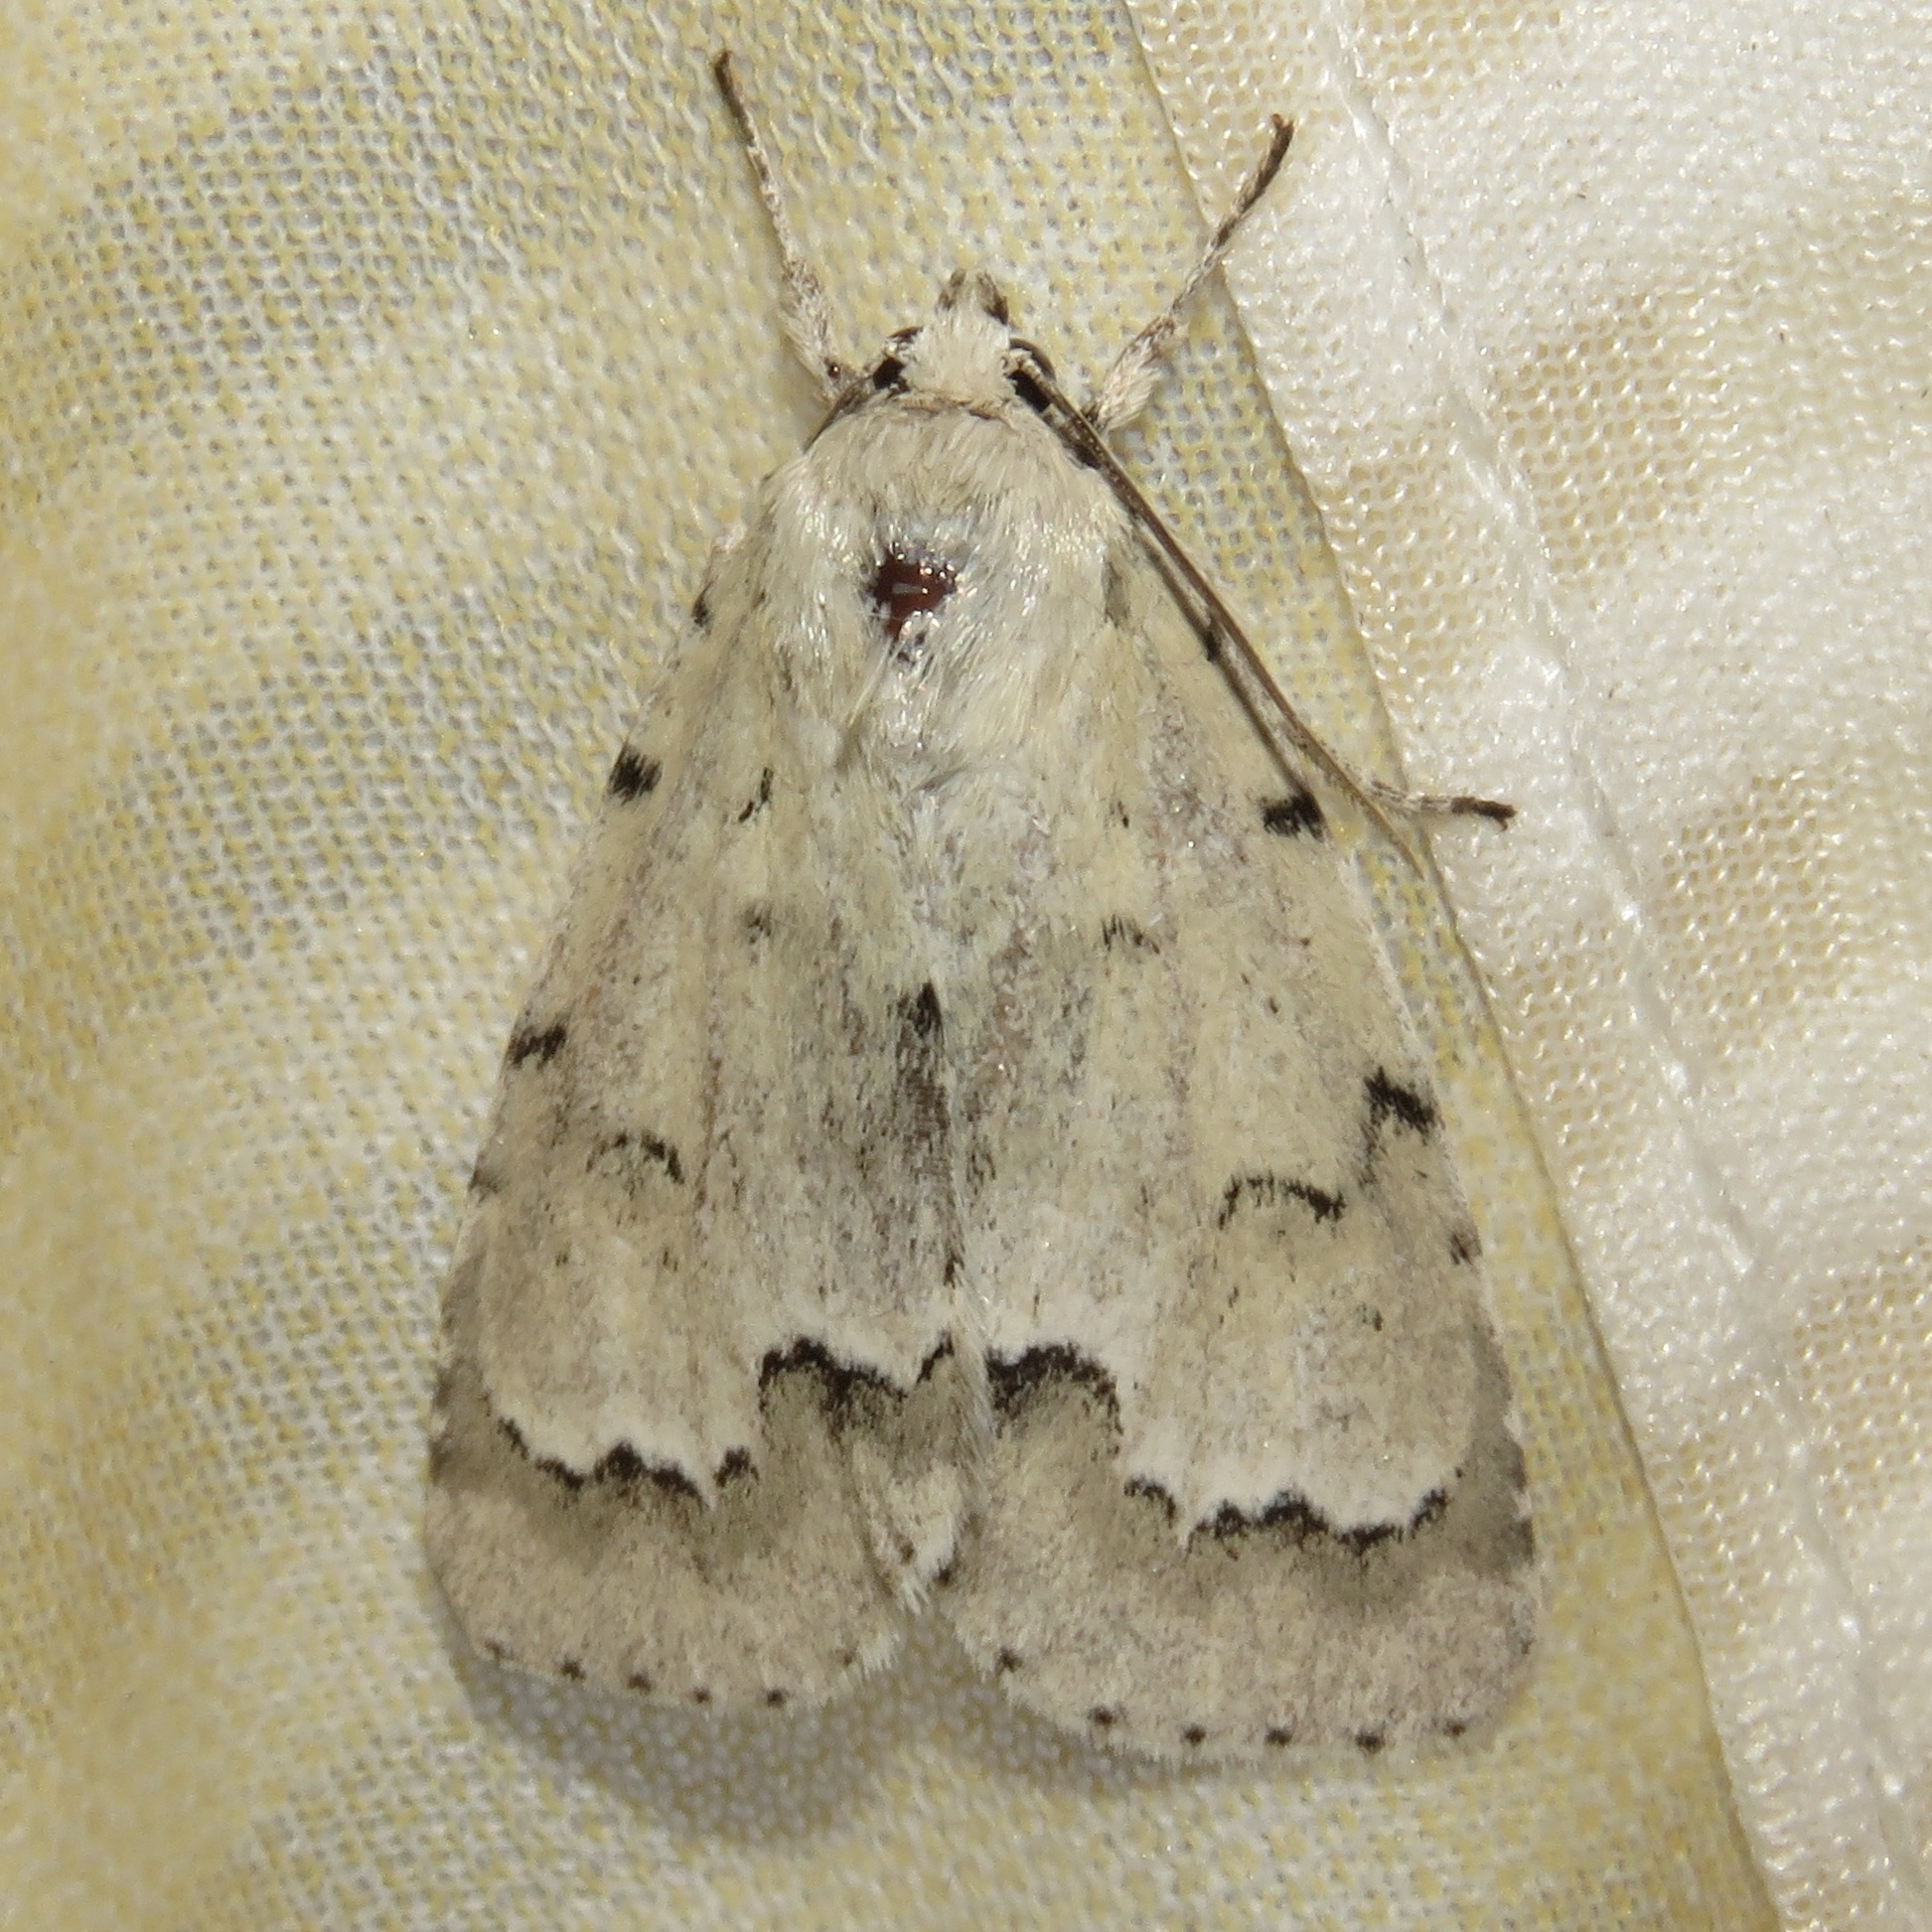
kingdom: Animalia
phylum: Arthropoda
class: Insecta
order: Lepidoptera
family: Noctuidae
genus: Acronicta
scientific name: Acronicta innotata
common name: Unmarked dagger
